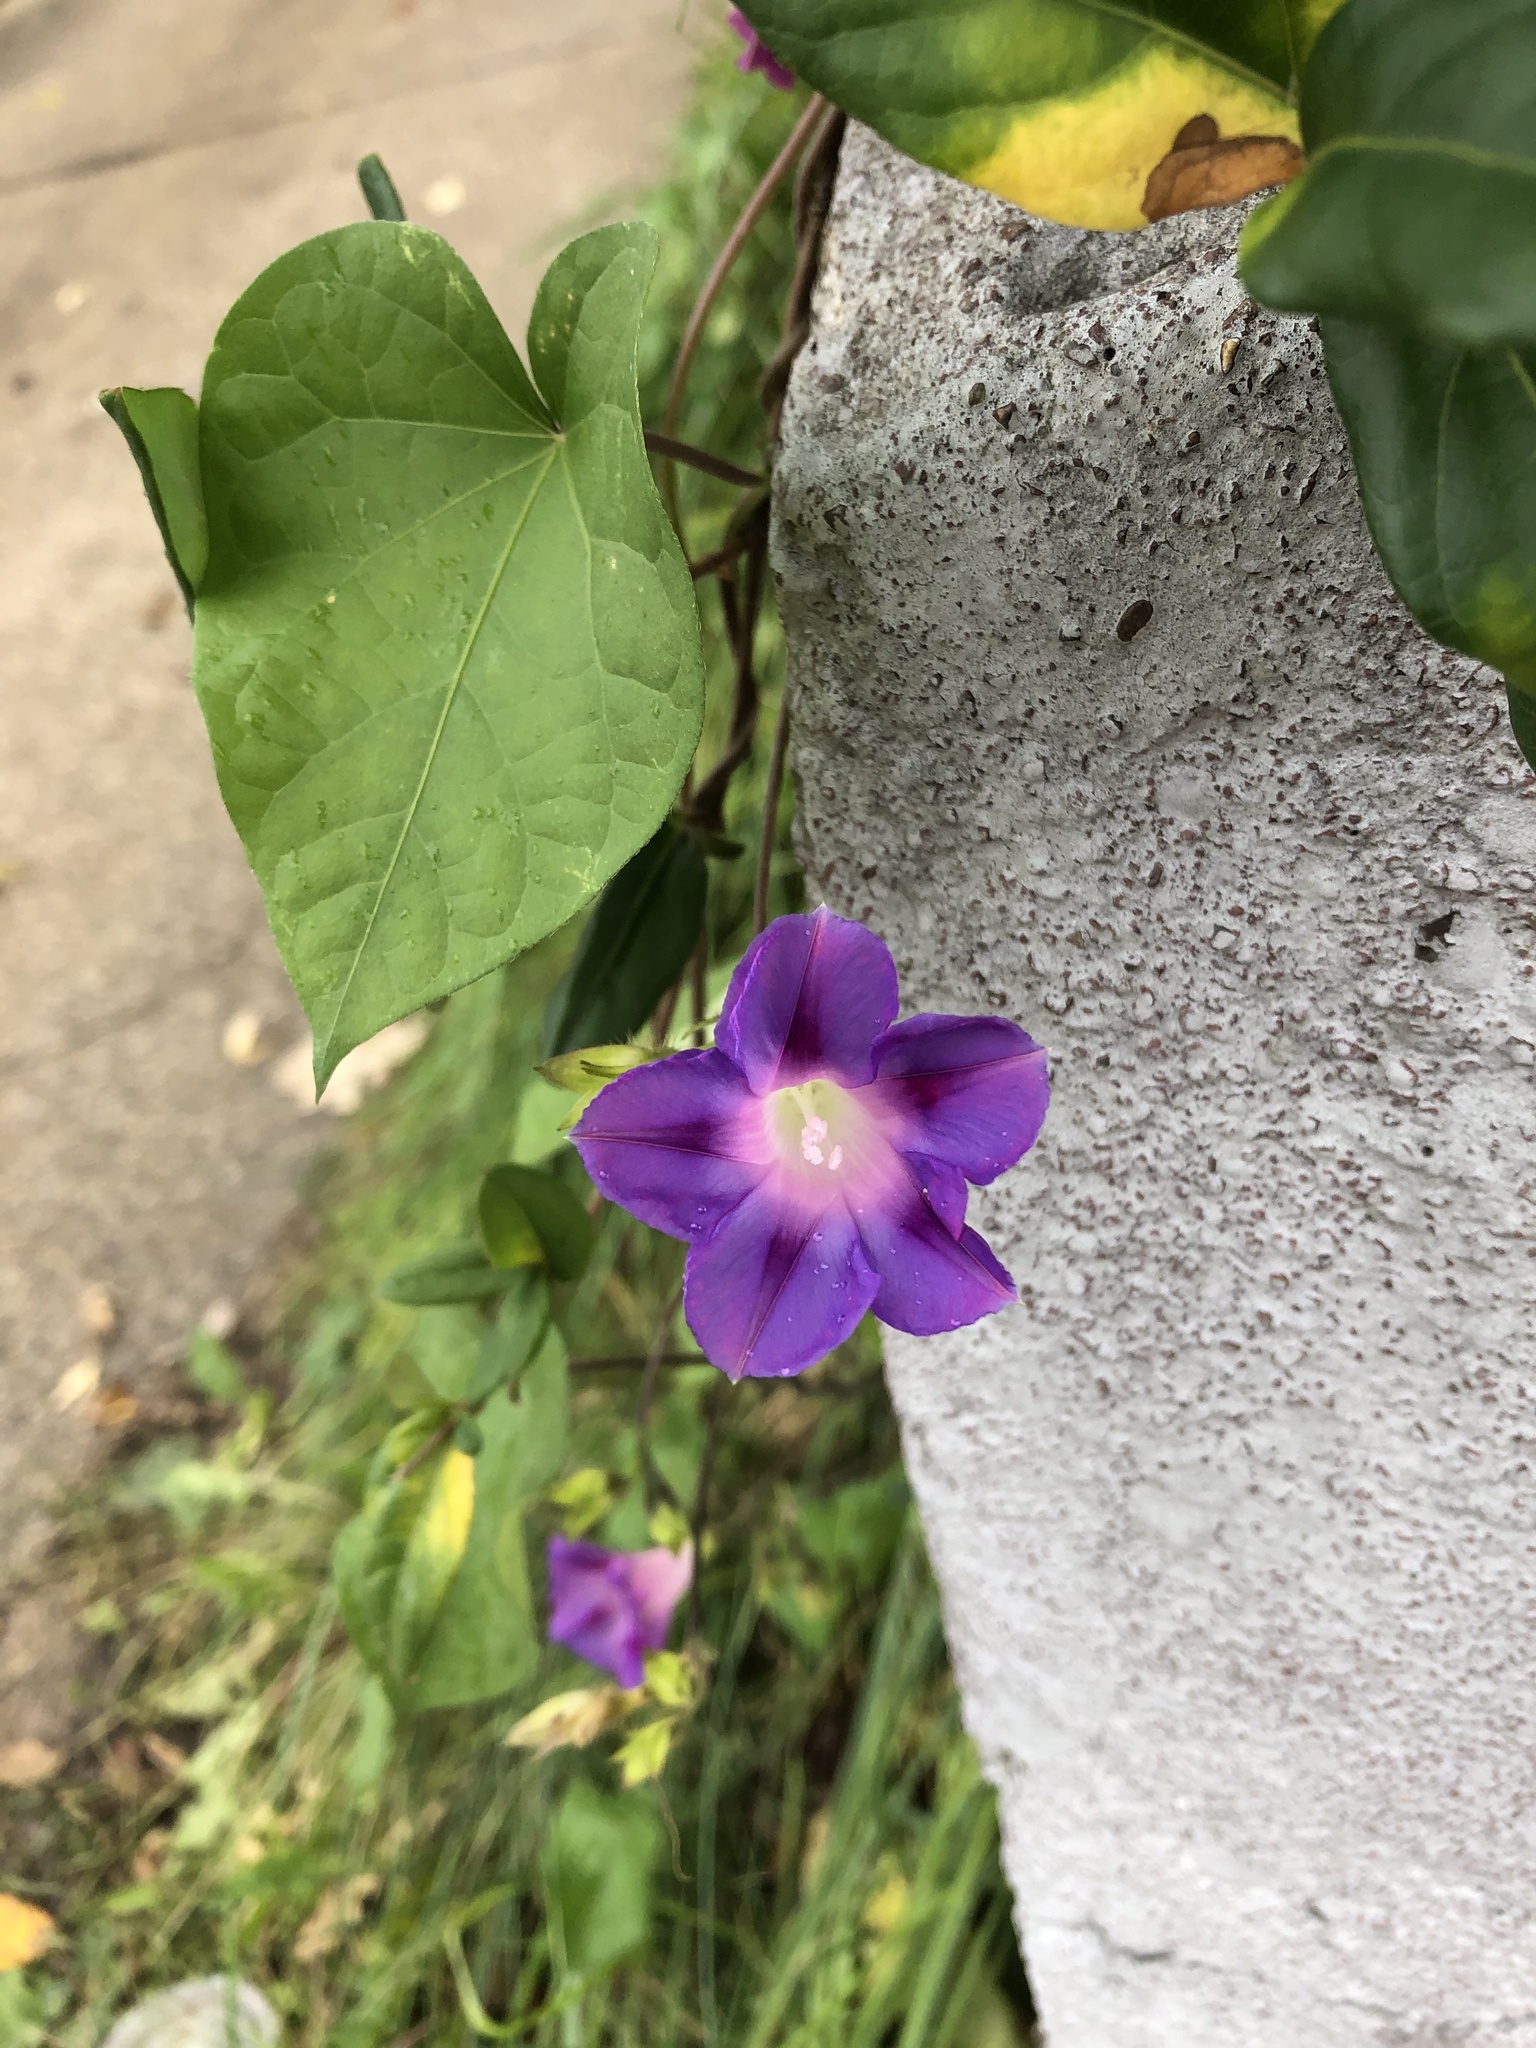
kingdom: Plantae
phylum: Tracheophyta
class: Magnoliopsida
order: Solanales
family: Convolvulaceae
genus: Ipomoea
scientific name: Ipomoea purpurea
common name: Common morning-glory
